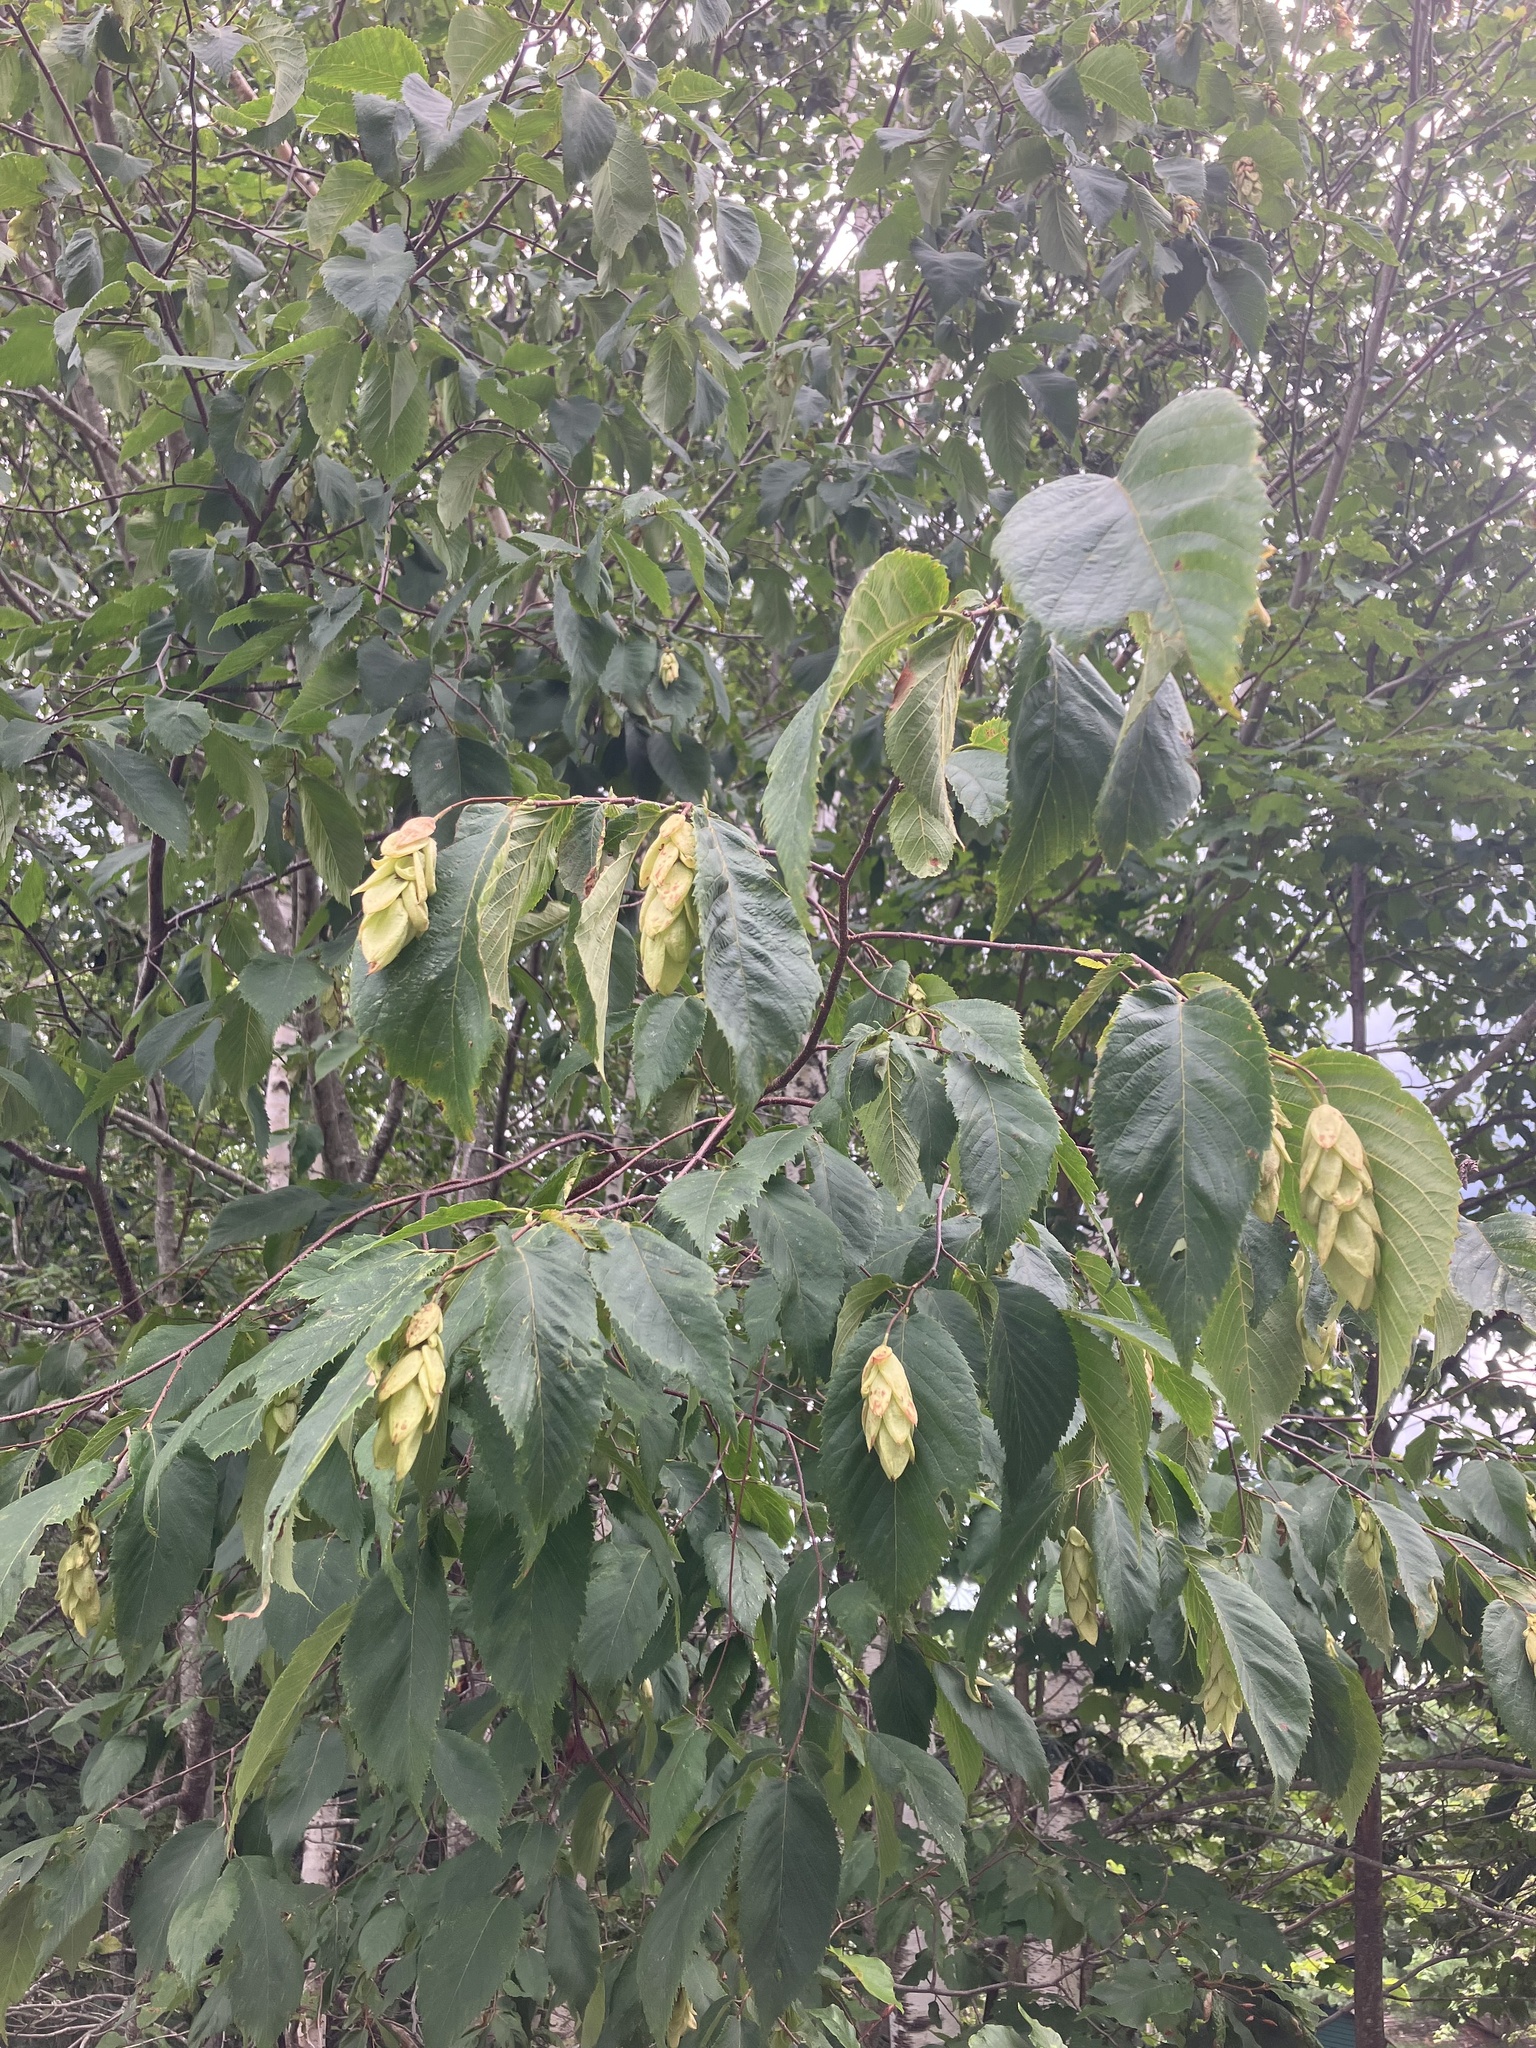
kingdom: Plantae
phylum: Tracheophyta
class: Magnoliopsida
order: Fagales
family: Betulaceae
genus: Ostrya
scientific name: Ostrya virginiana
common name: Ironwood
